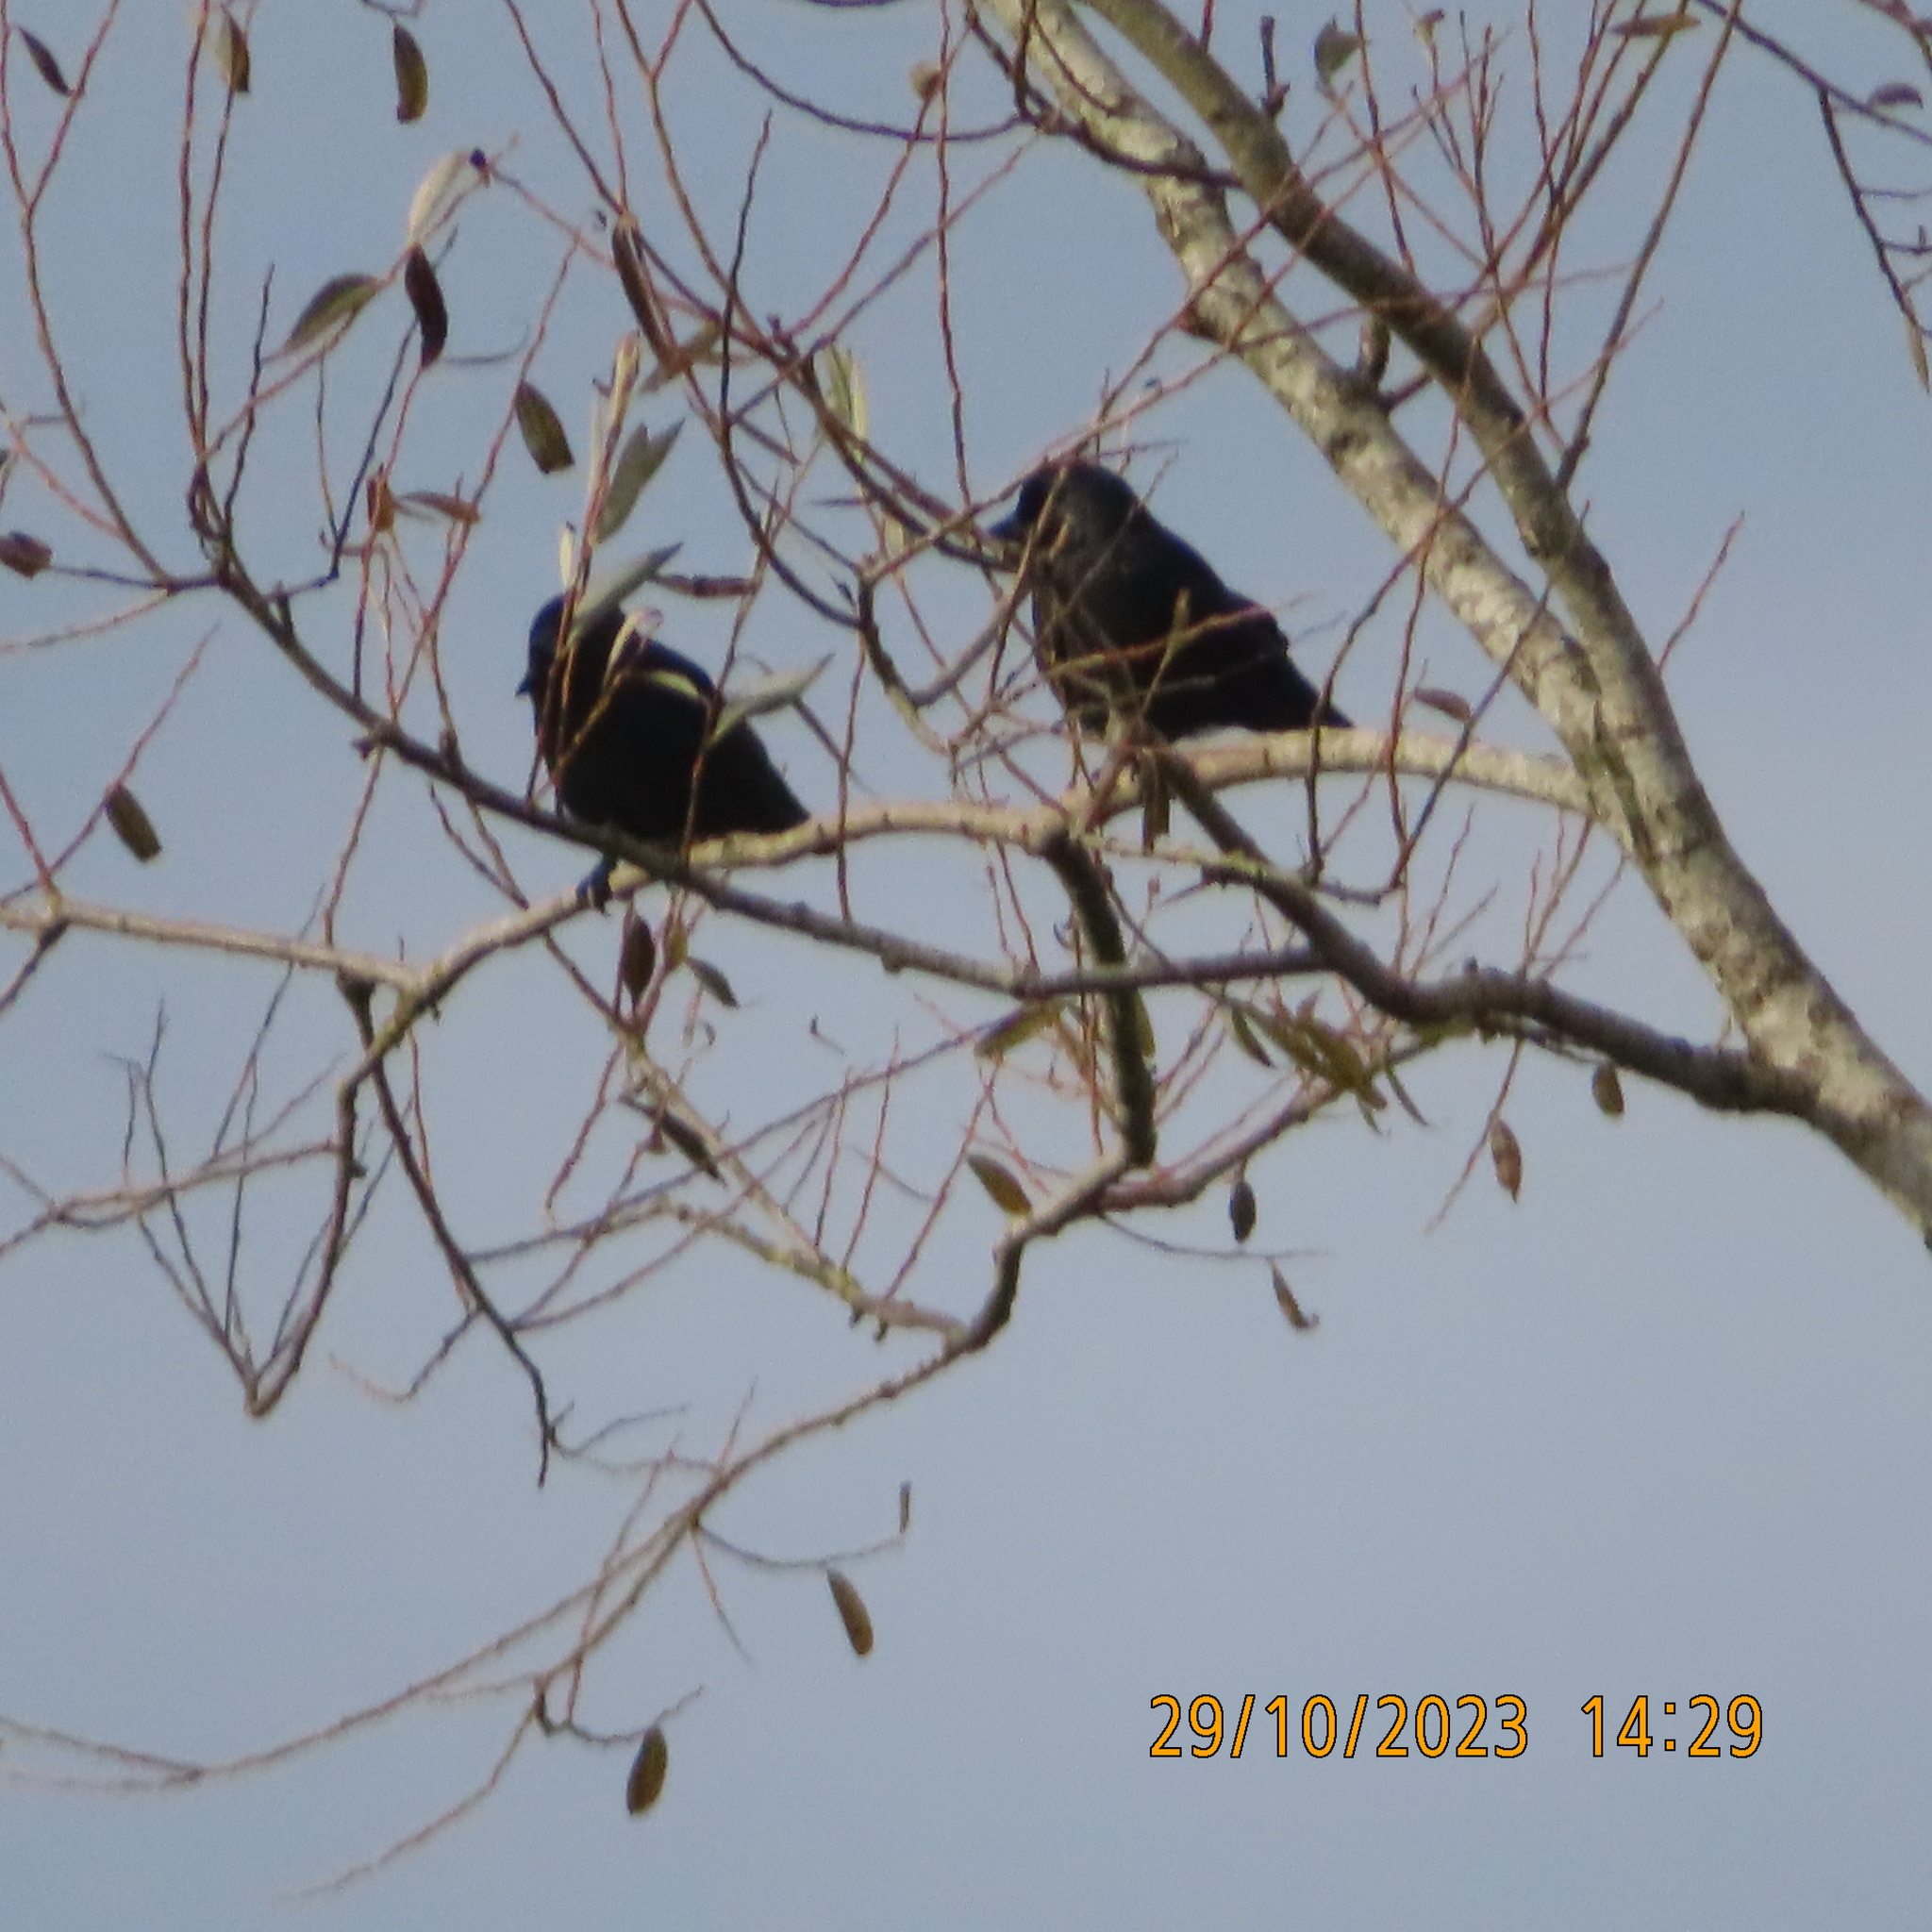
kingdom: Animalia
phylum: Chordata
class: Aves
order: Passeriformes
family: Corvidae
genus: Coloeus
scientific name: Coloeus monedula
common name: Western jackdaw
